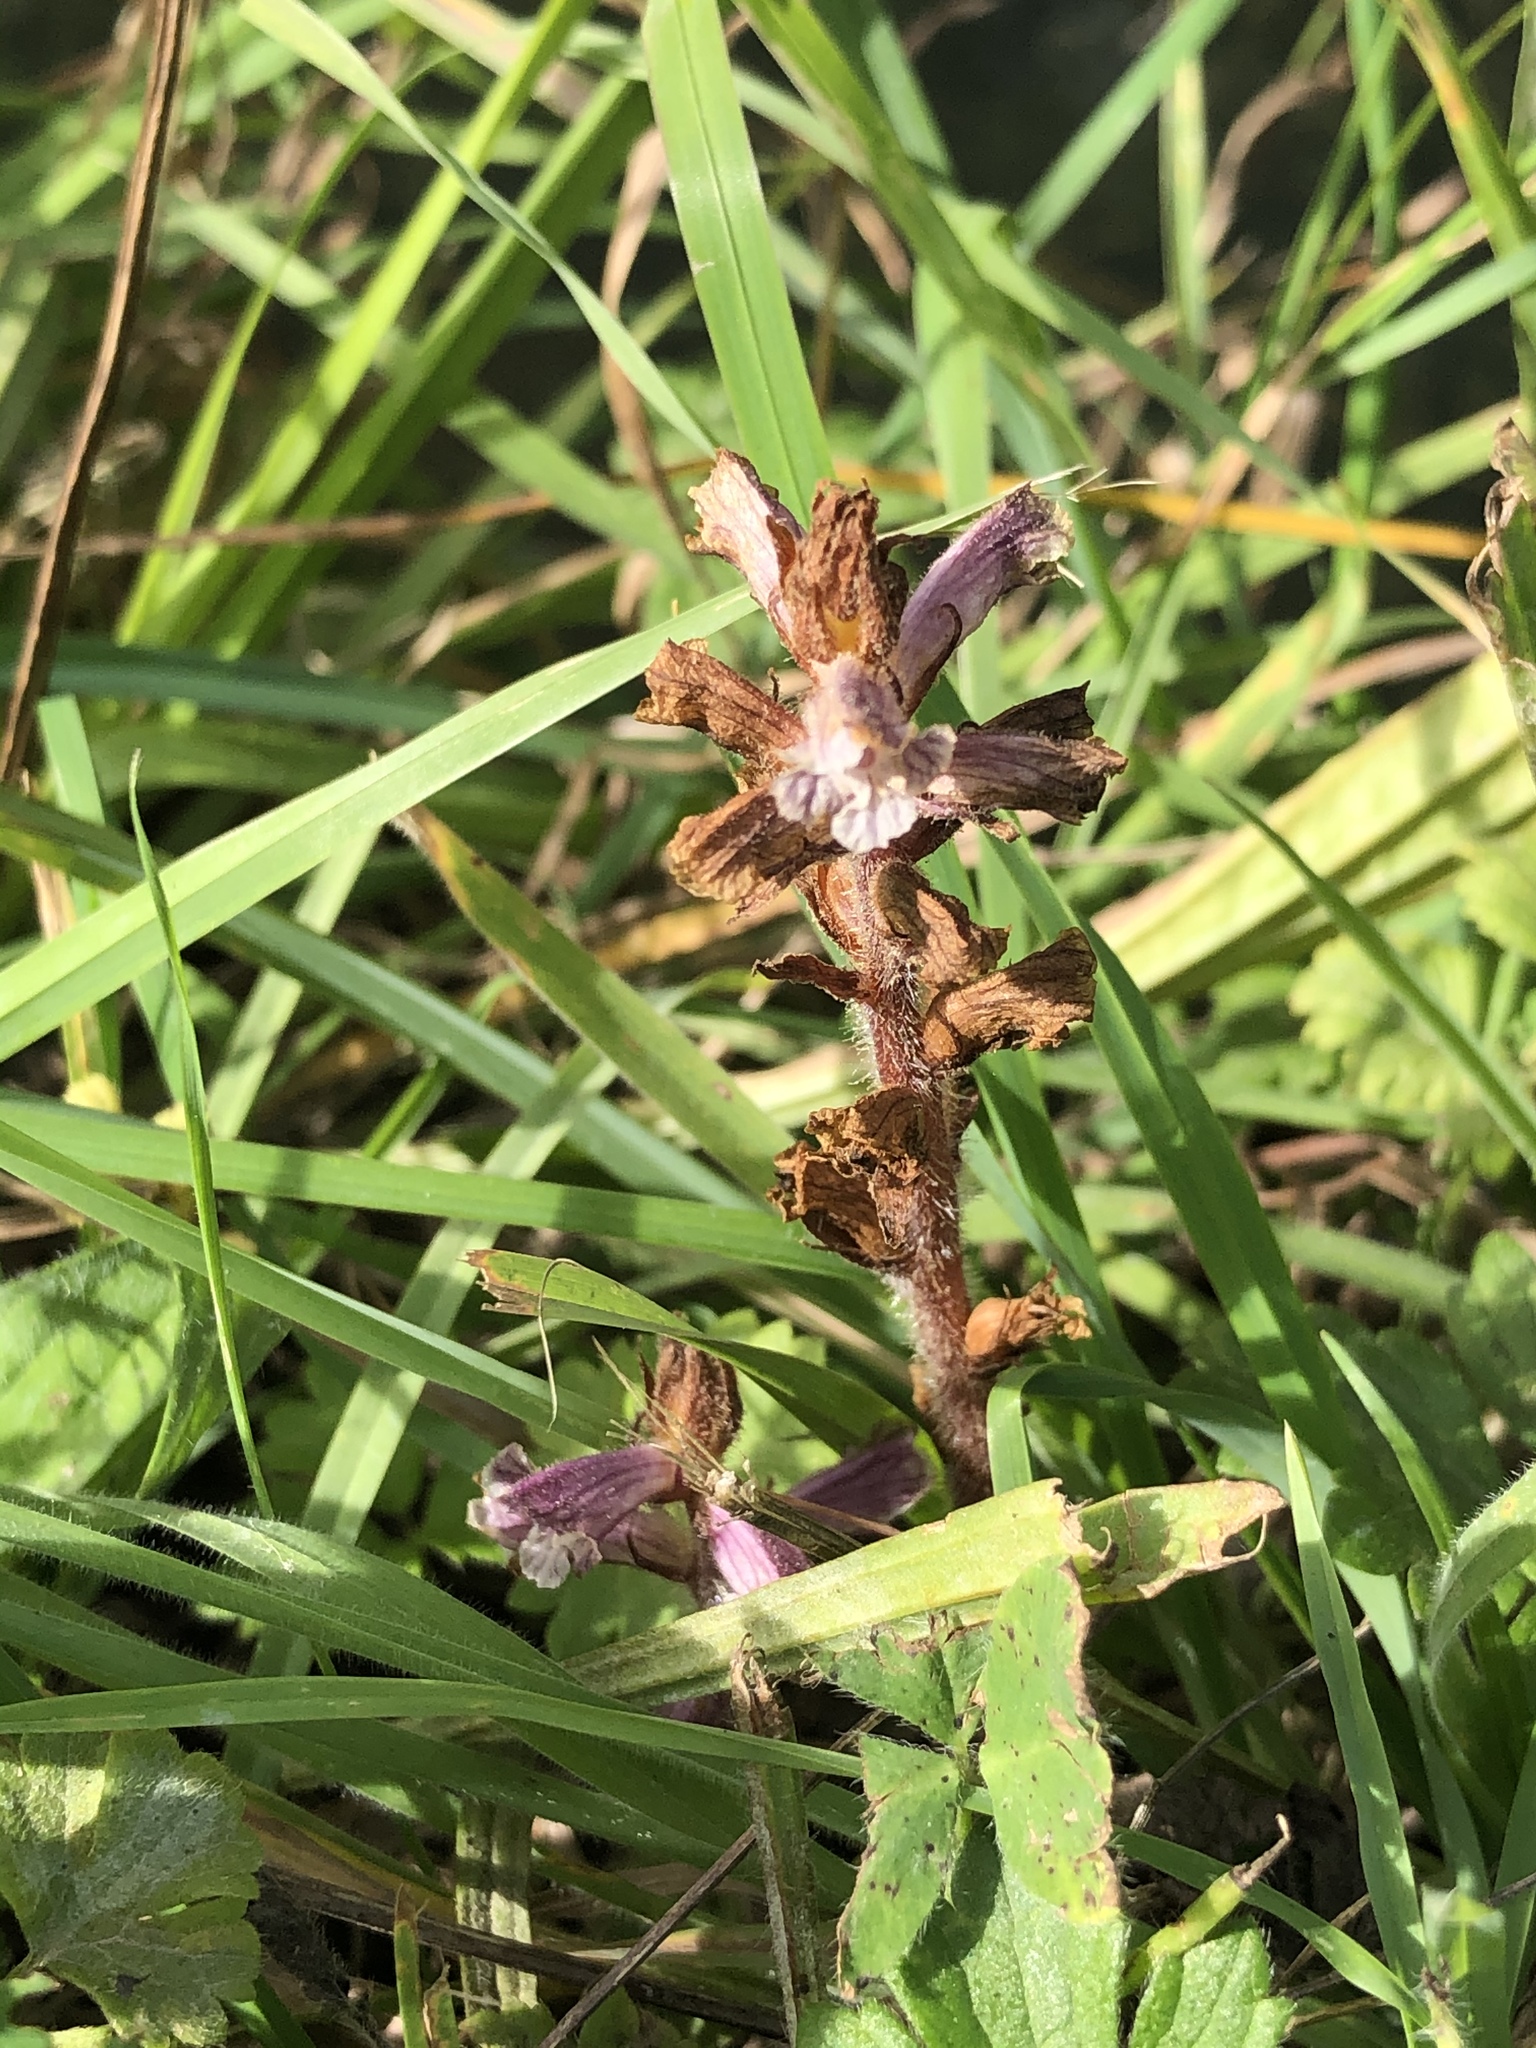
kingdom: Plantae
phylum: Tracheophyta
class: Magnoliopsida
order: Lamiales
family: Orobanchaceae
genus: Orobanche
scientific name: Orobanche minor
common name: Common broomrape
